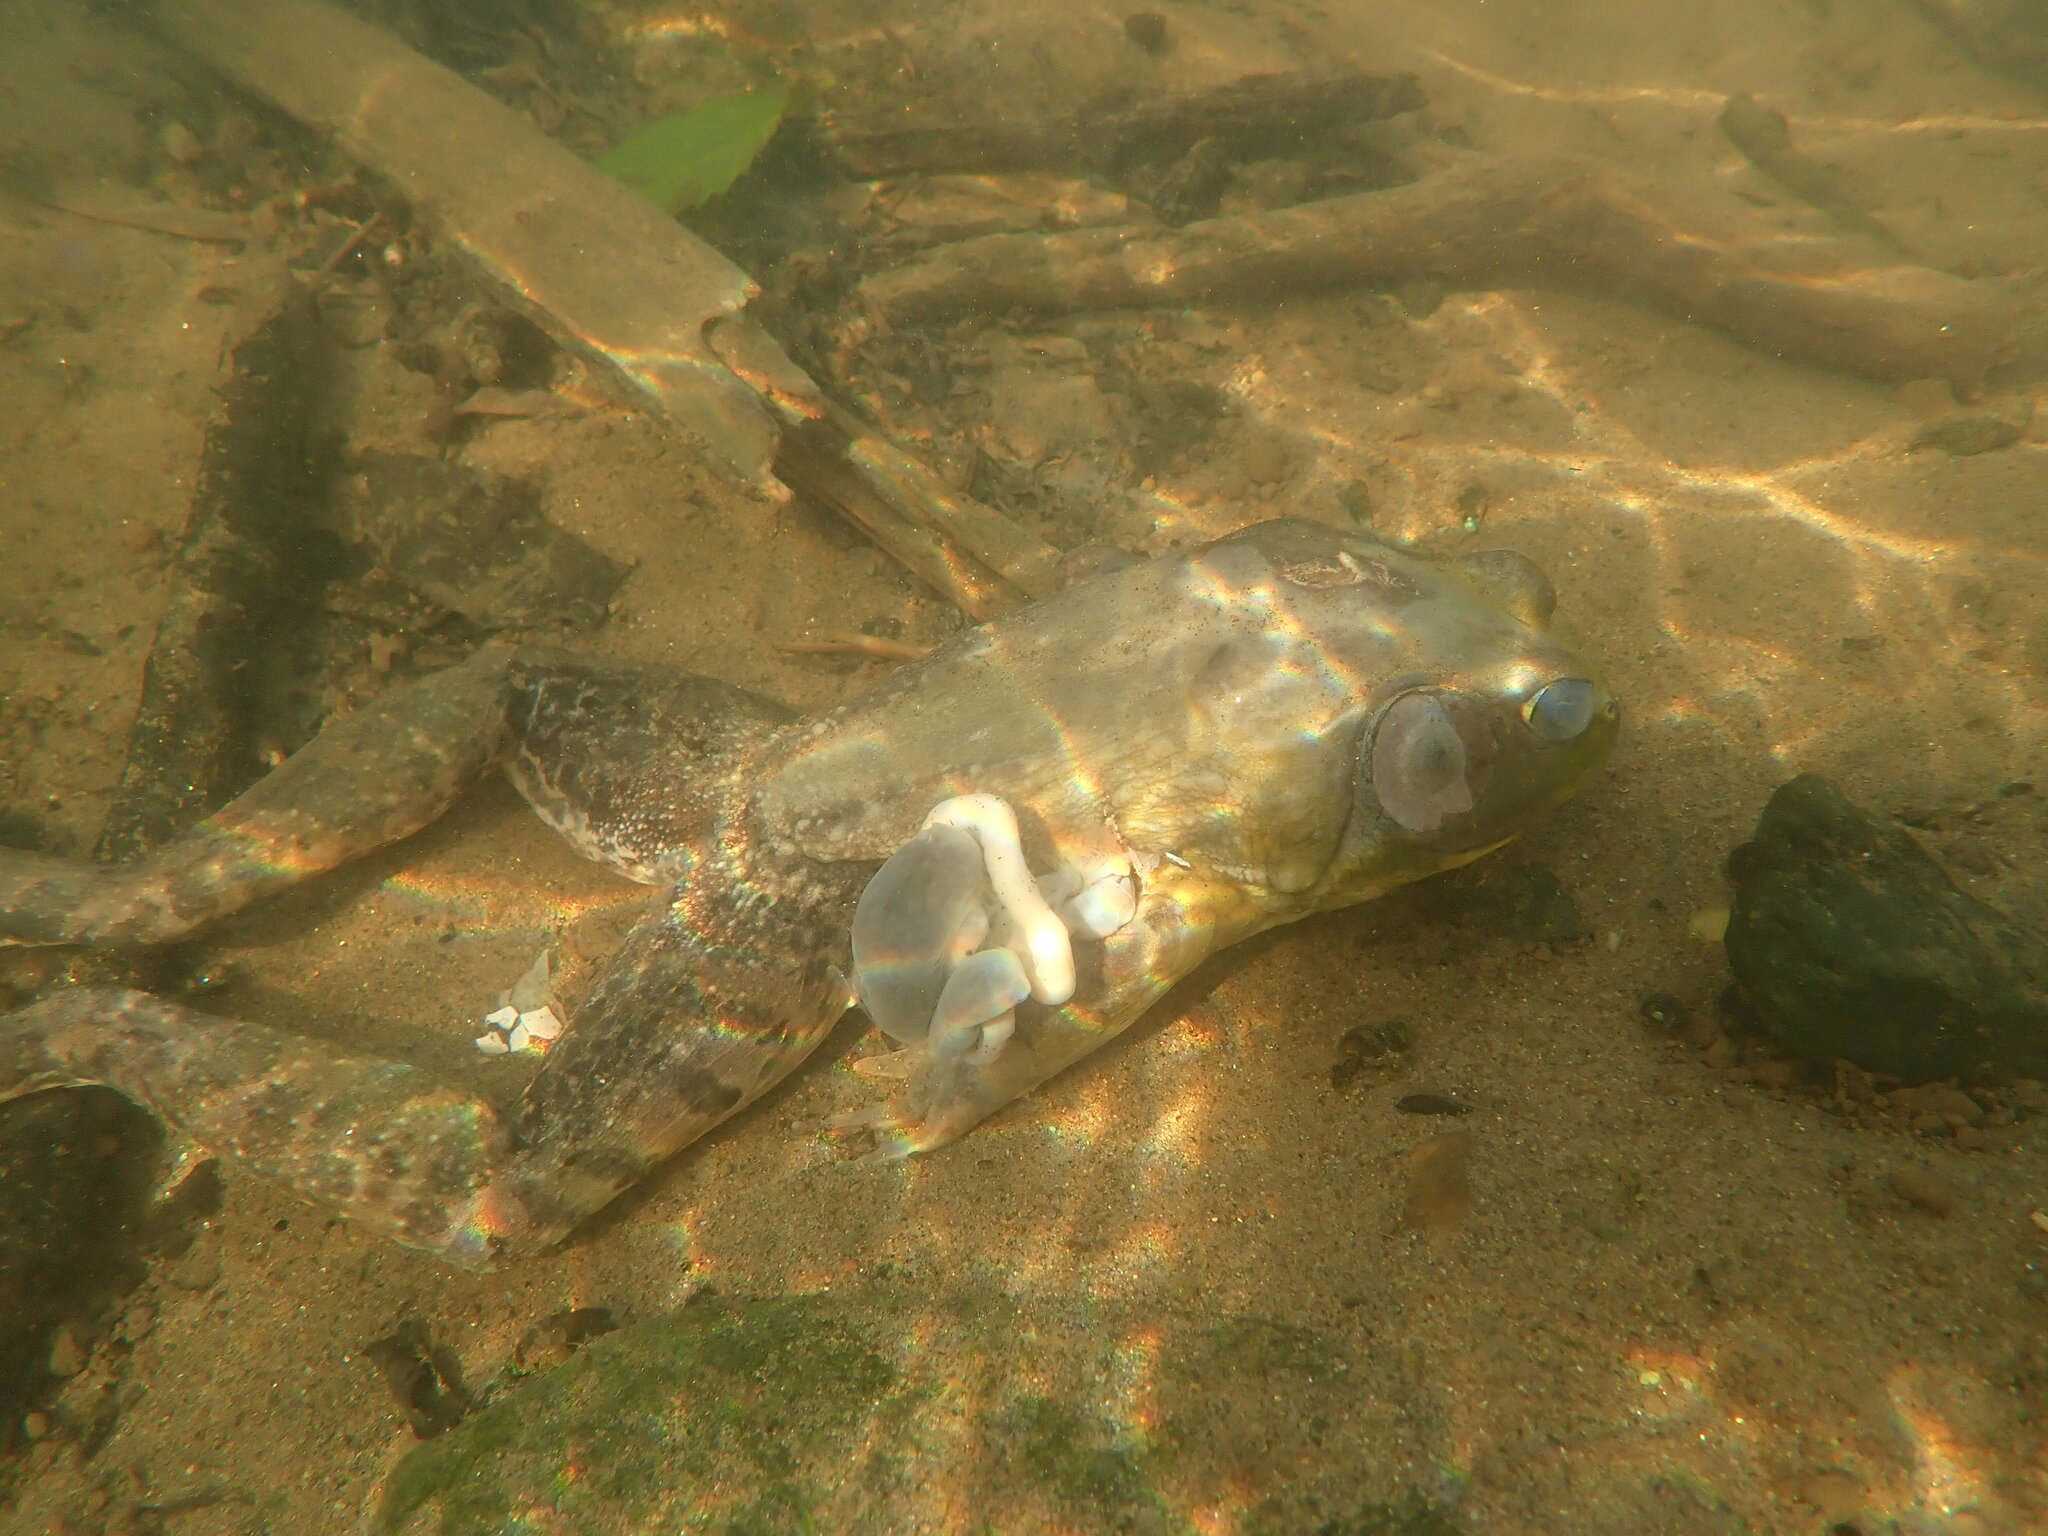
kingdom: Animalia
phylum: Chordata
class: Amphibia
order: Anura
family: Ranidae
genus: Lithobates
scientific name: Lithobates catesbeianus
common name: American bullfrog
